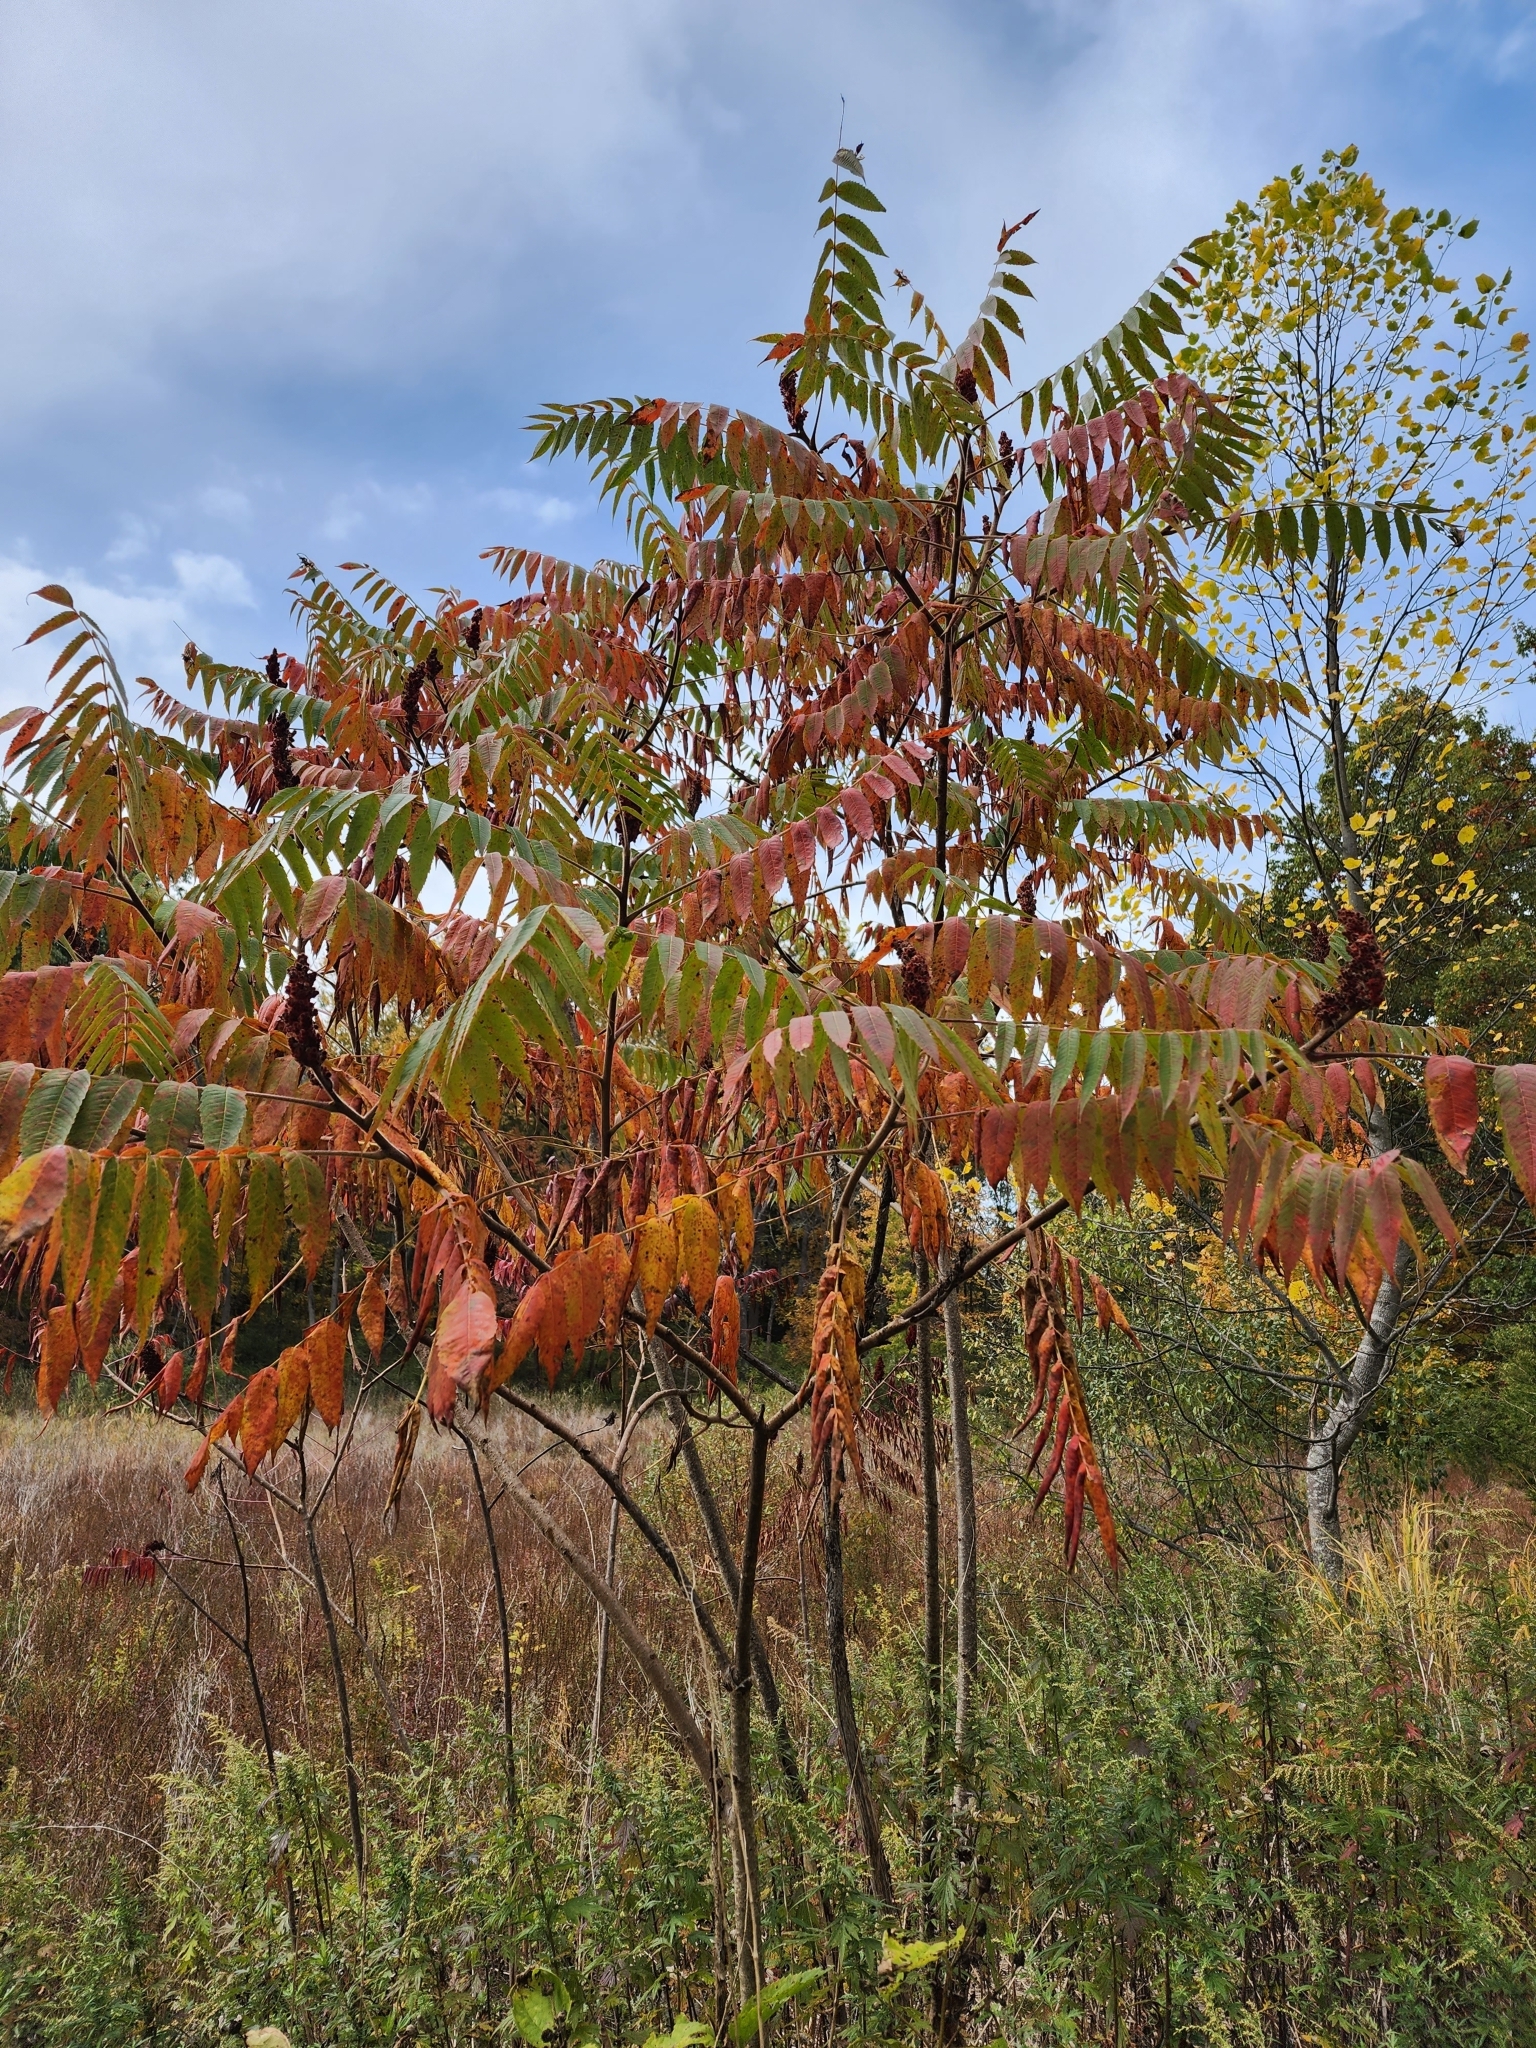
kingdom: Plantae
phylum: Tracheophyta
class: Magnoliopsida
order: Sapindales
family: Anacardiaceae
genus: Rhus
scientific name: Rhus typhina
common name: Staghorn sumac
